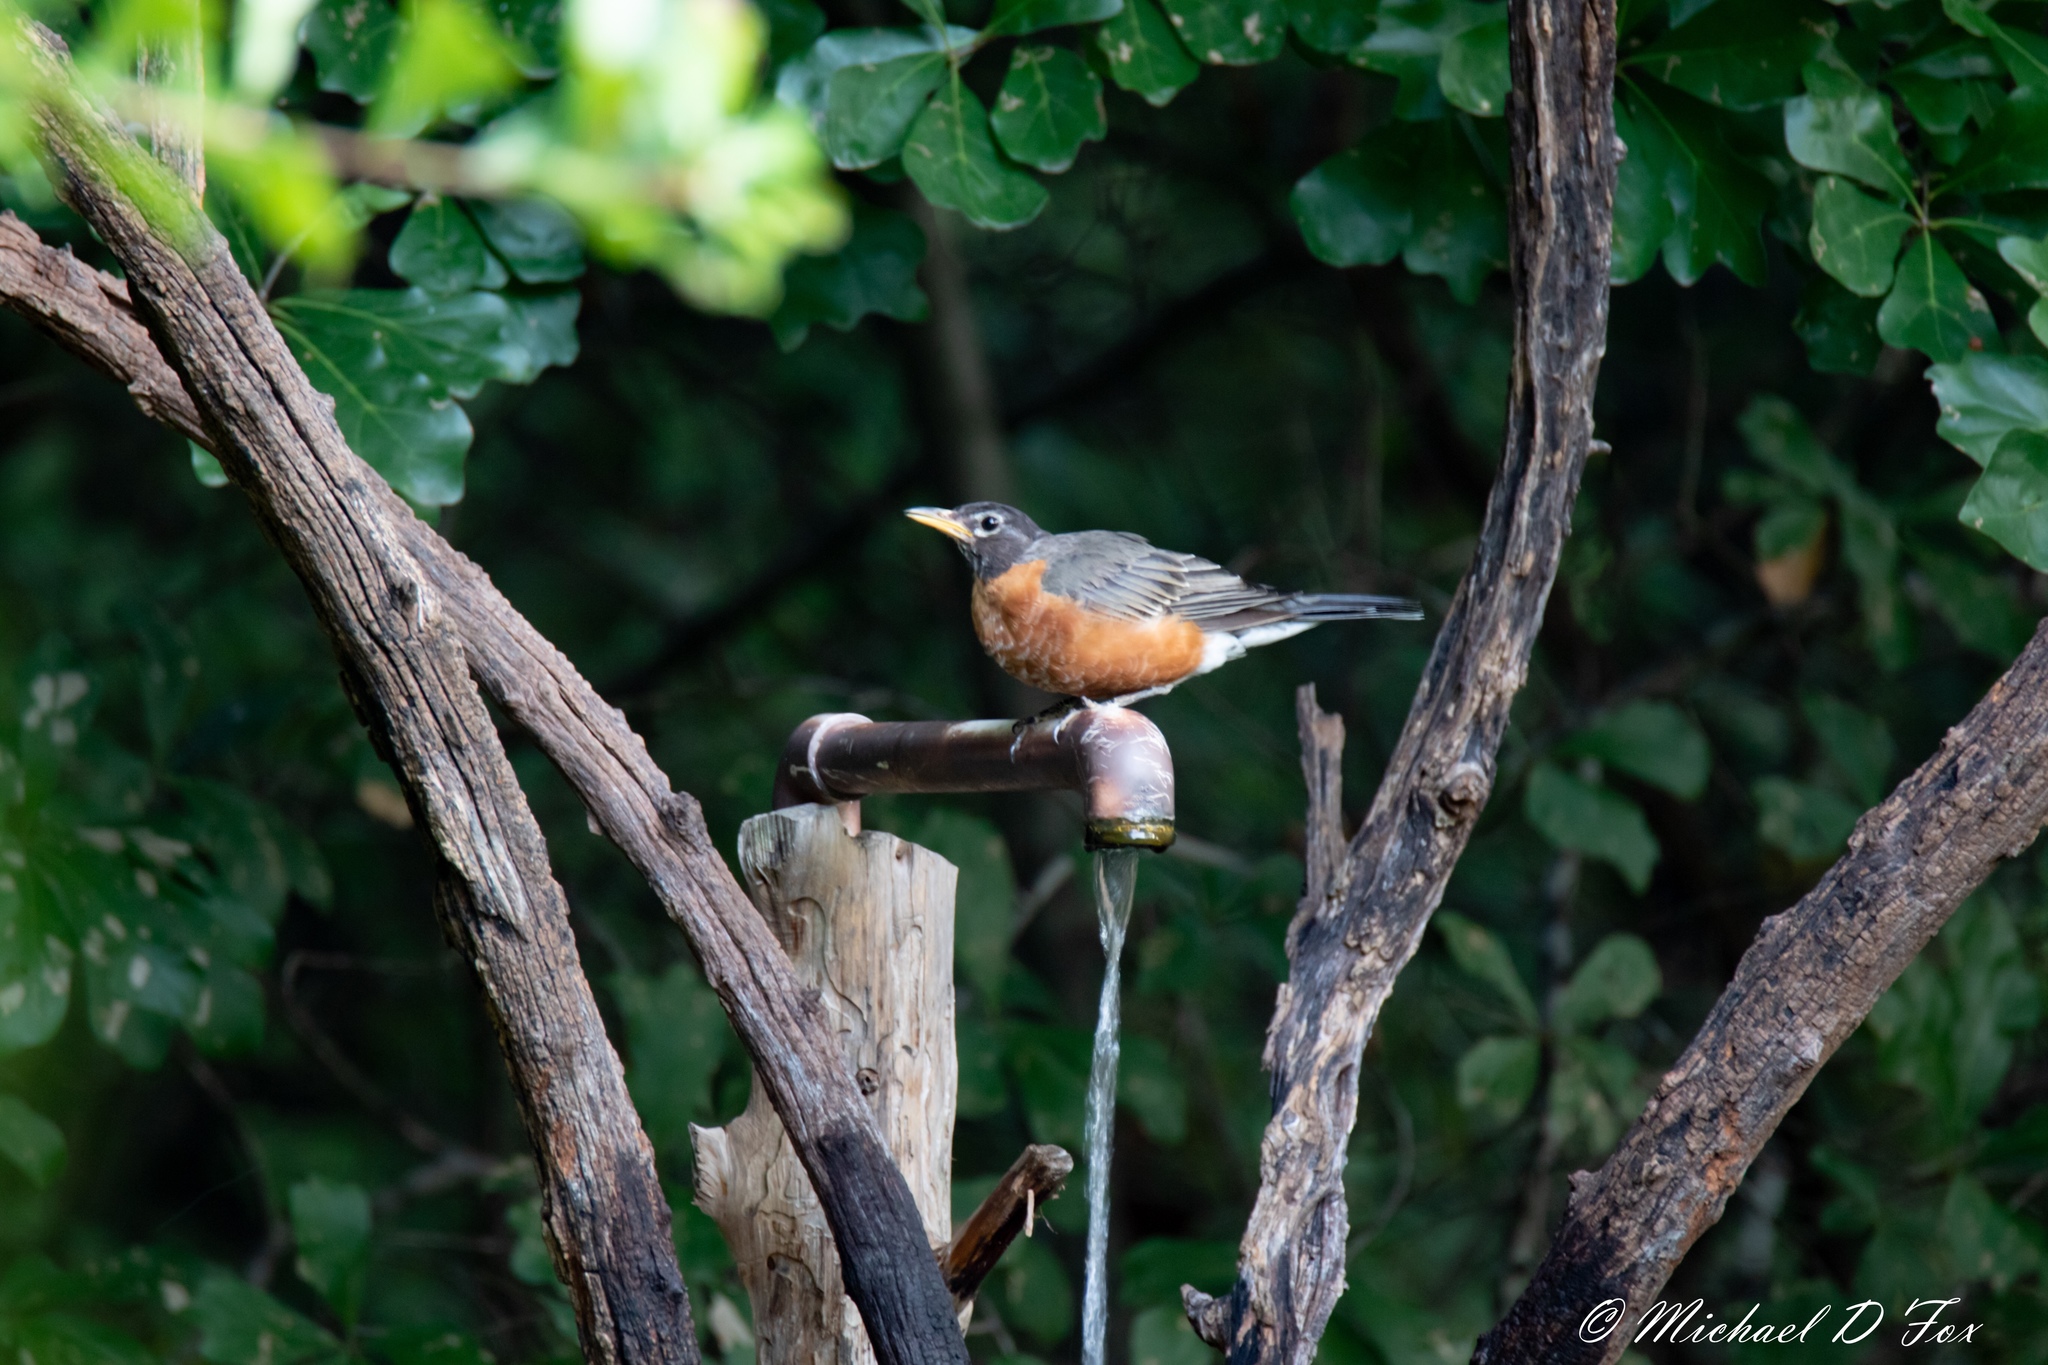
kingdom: Animalia
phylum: Chordata
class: Aves
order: Passeriformes
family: Turdidae
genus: Turdus
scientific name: Turdus migratorius
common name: American robin
